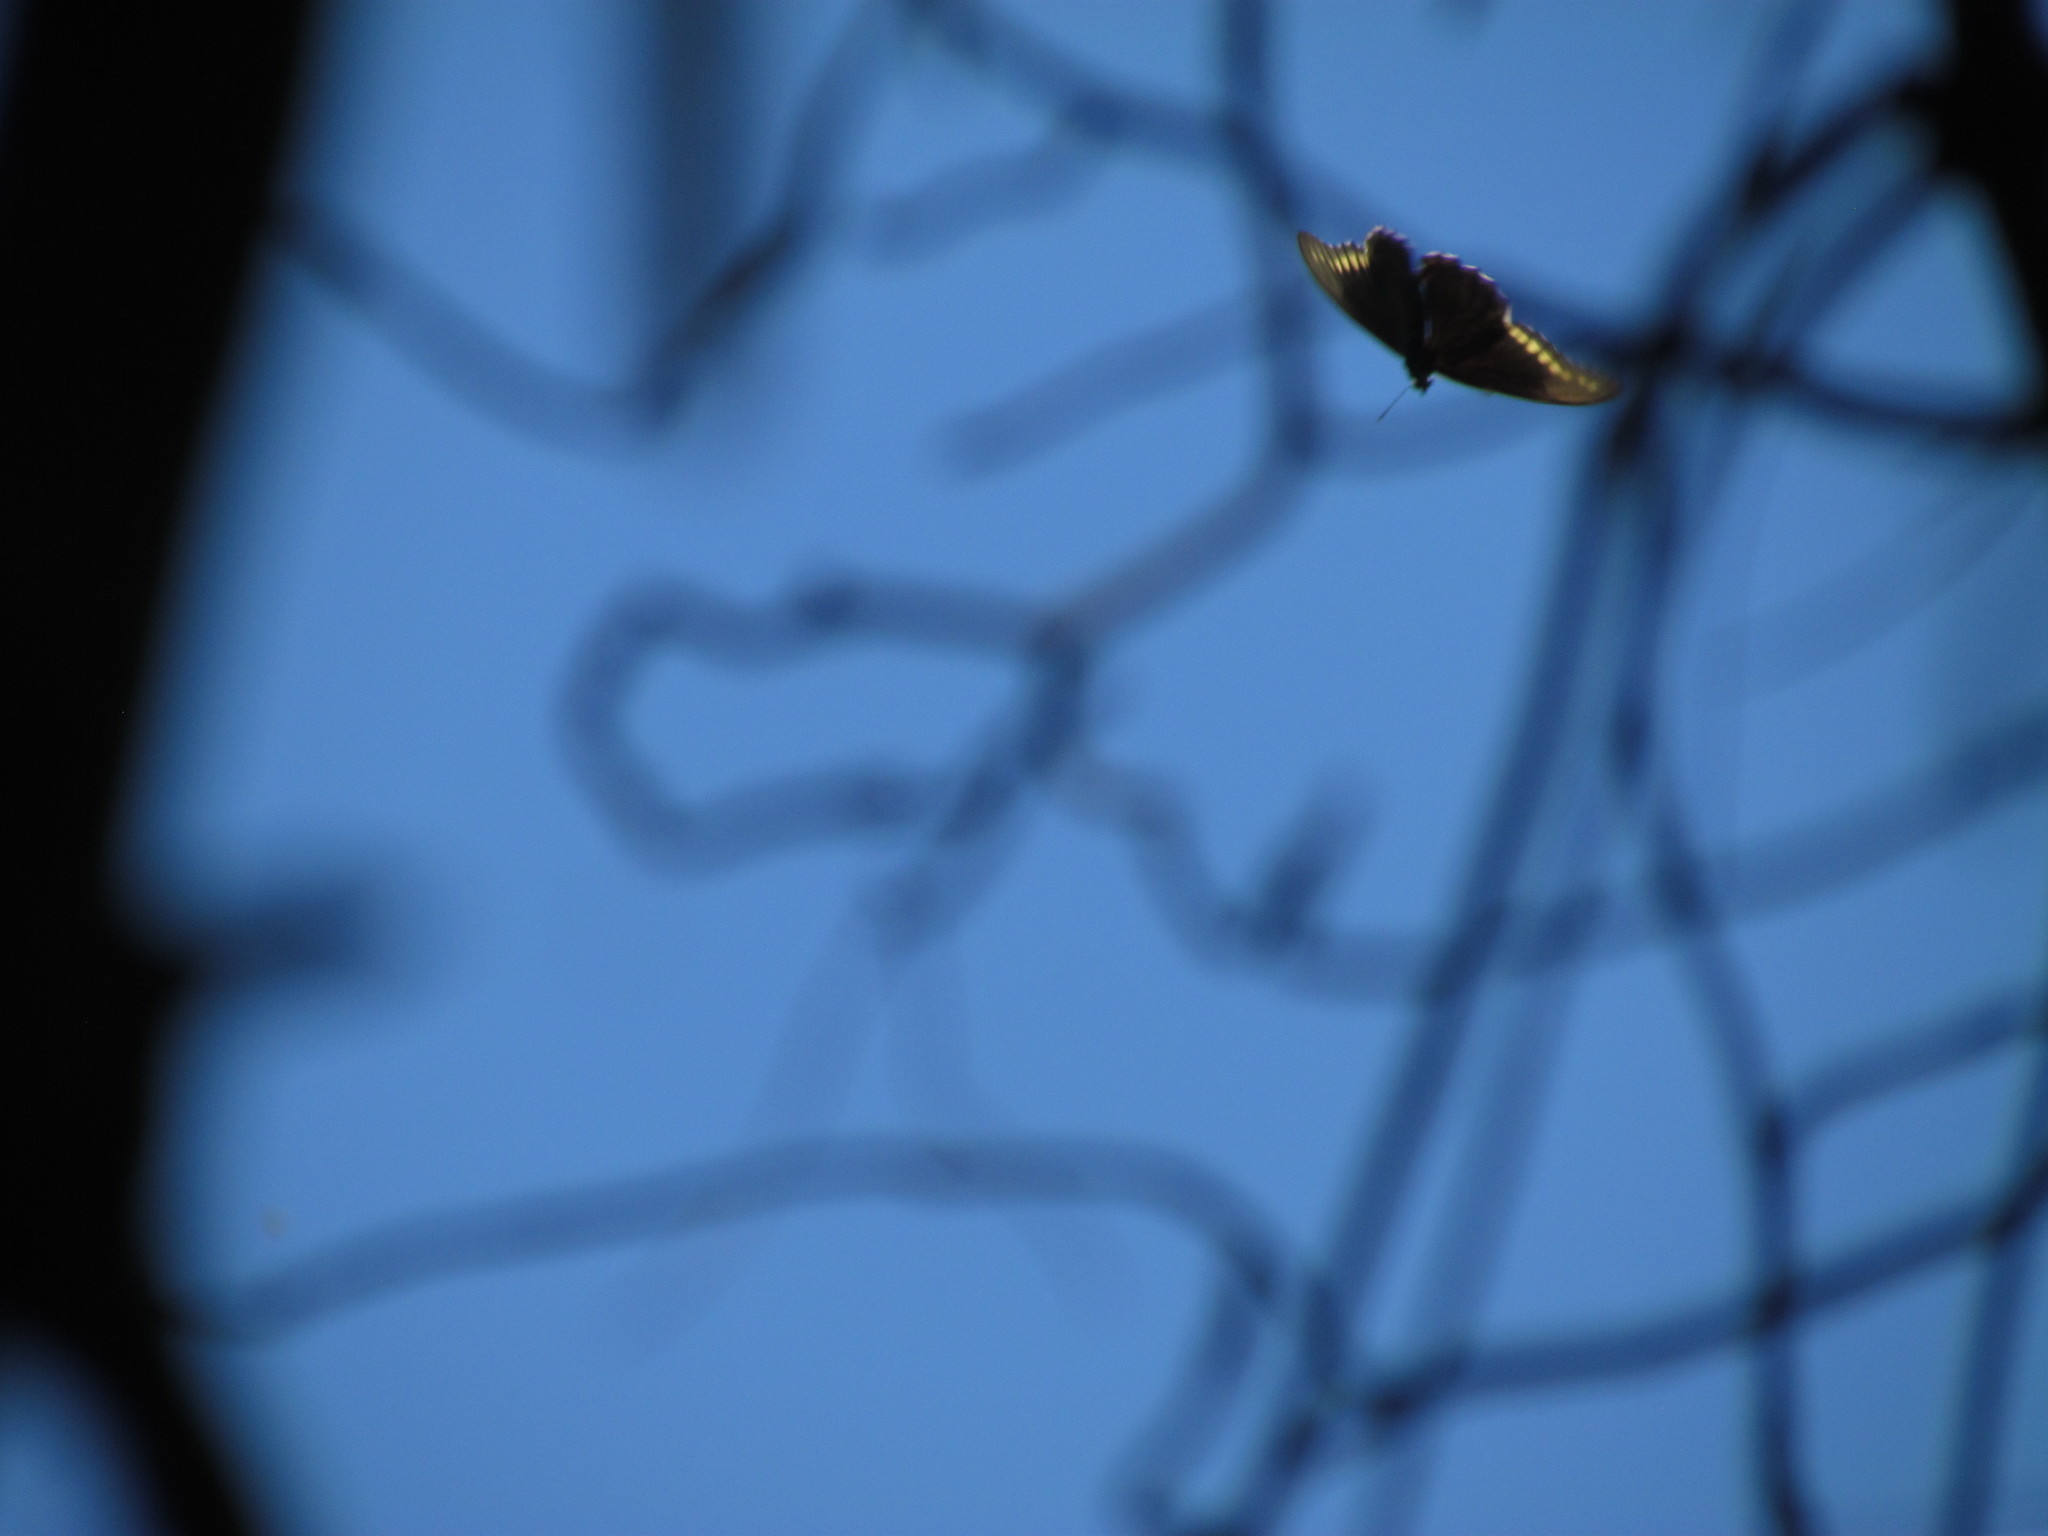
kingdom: Animalia
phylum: Arthropoda
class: Insecta
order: Lepidoptera
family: Papilionidae
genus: Battus
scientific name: Battus polydamas
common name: Polydamas swallowtail
